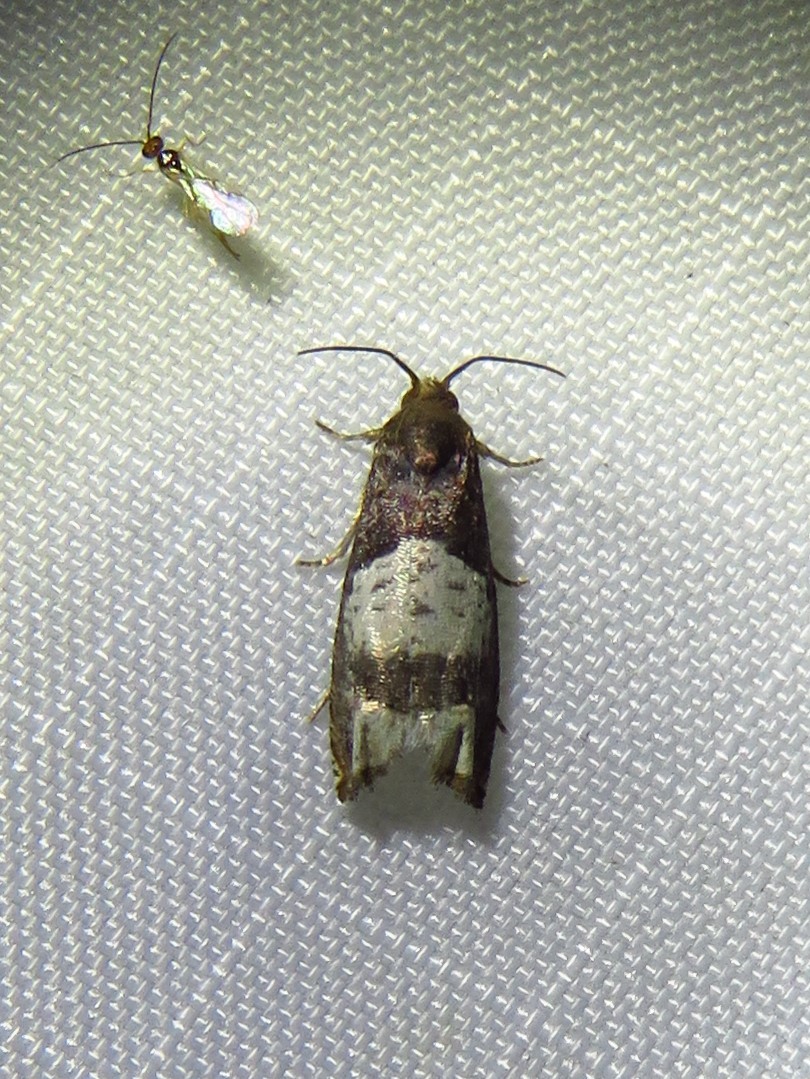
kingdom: Animalia
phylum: Arthropoda
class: Insecta
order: Lepidoptera
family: Tortricidae
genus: Epiblema
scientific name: Epiblema scudderiana
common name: Goldenrod gall moth
